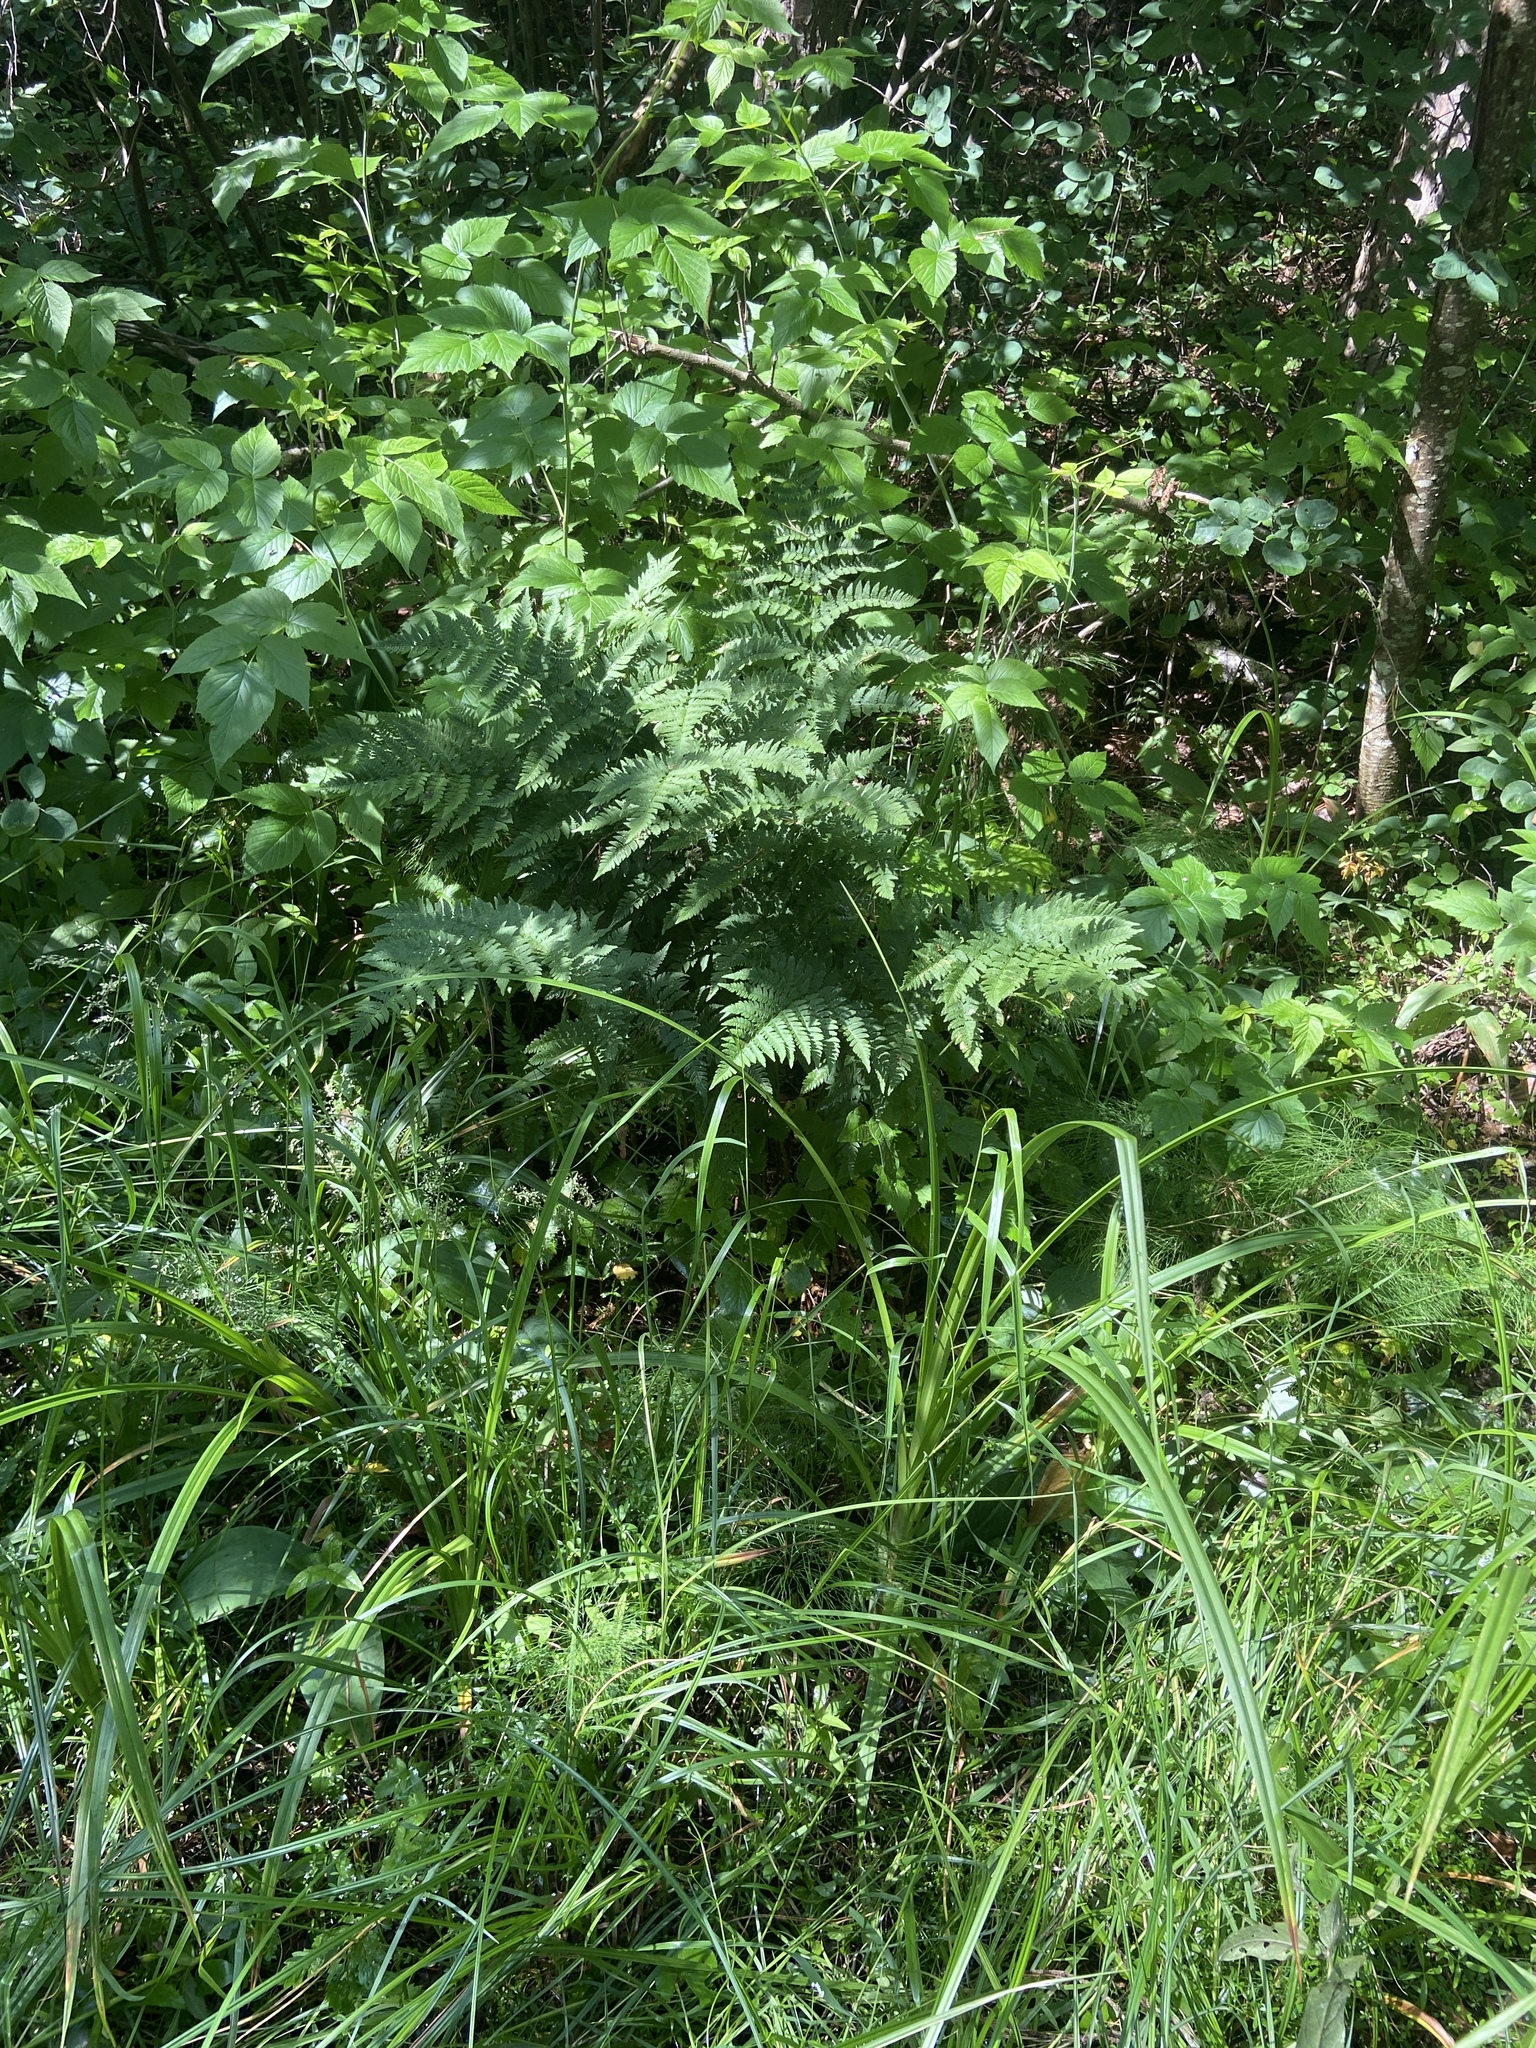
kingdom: Plantae
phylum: Tracheophyta
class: Polypodiopsida
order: Polypodiales
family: Dryopteridaceae
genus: Dryopteris
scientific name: Dryopteris carthusiana
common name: Narrow buckler-fern
